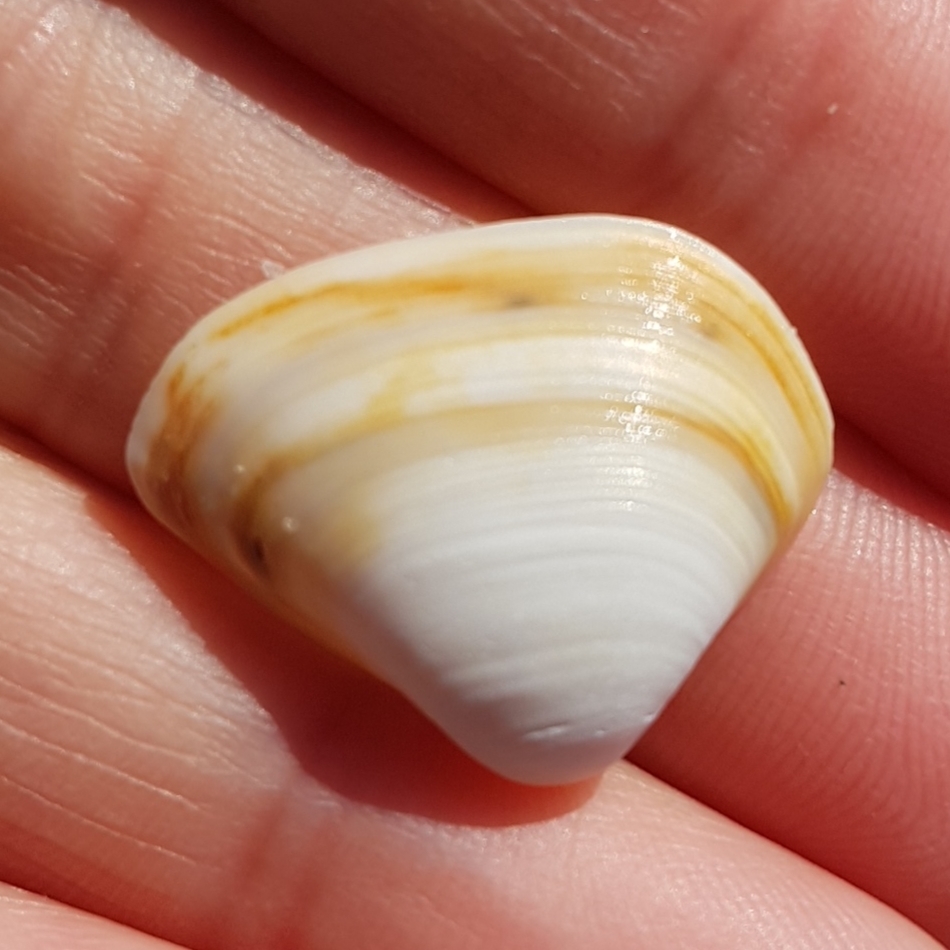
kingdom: Animalia
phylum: Mollusca
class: Bivalvia
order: Venerida
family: Mactridae
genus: Spisula
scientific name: Spisula subtruncata
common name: Cut trough shell
